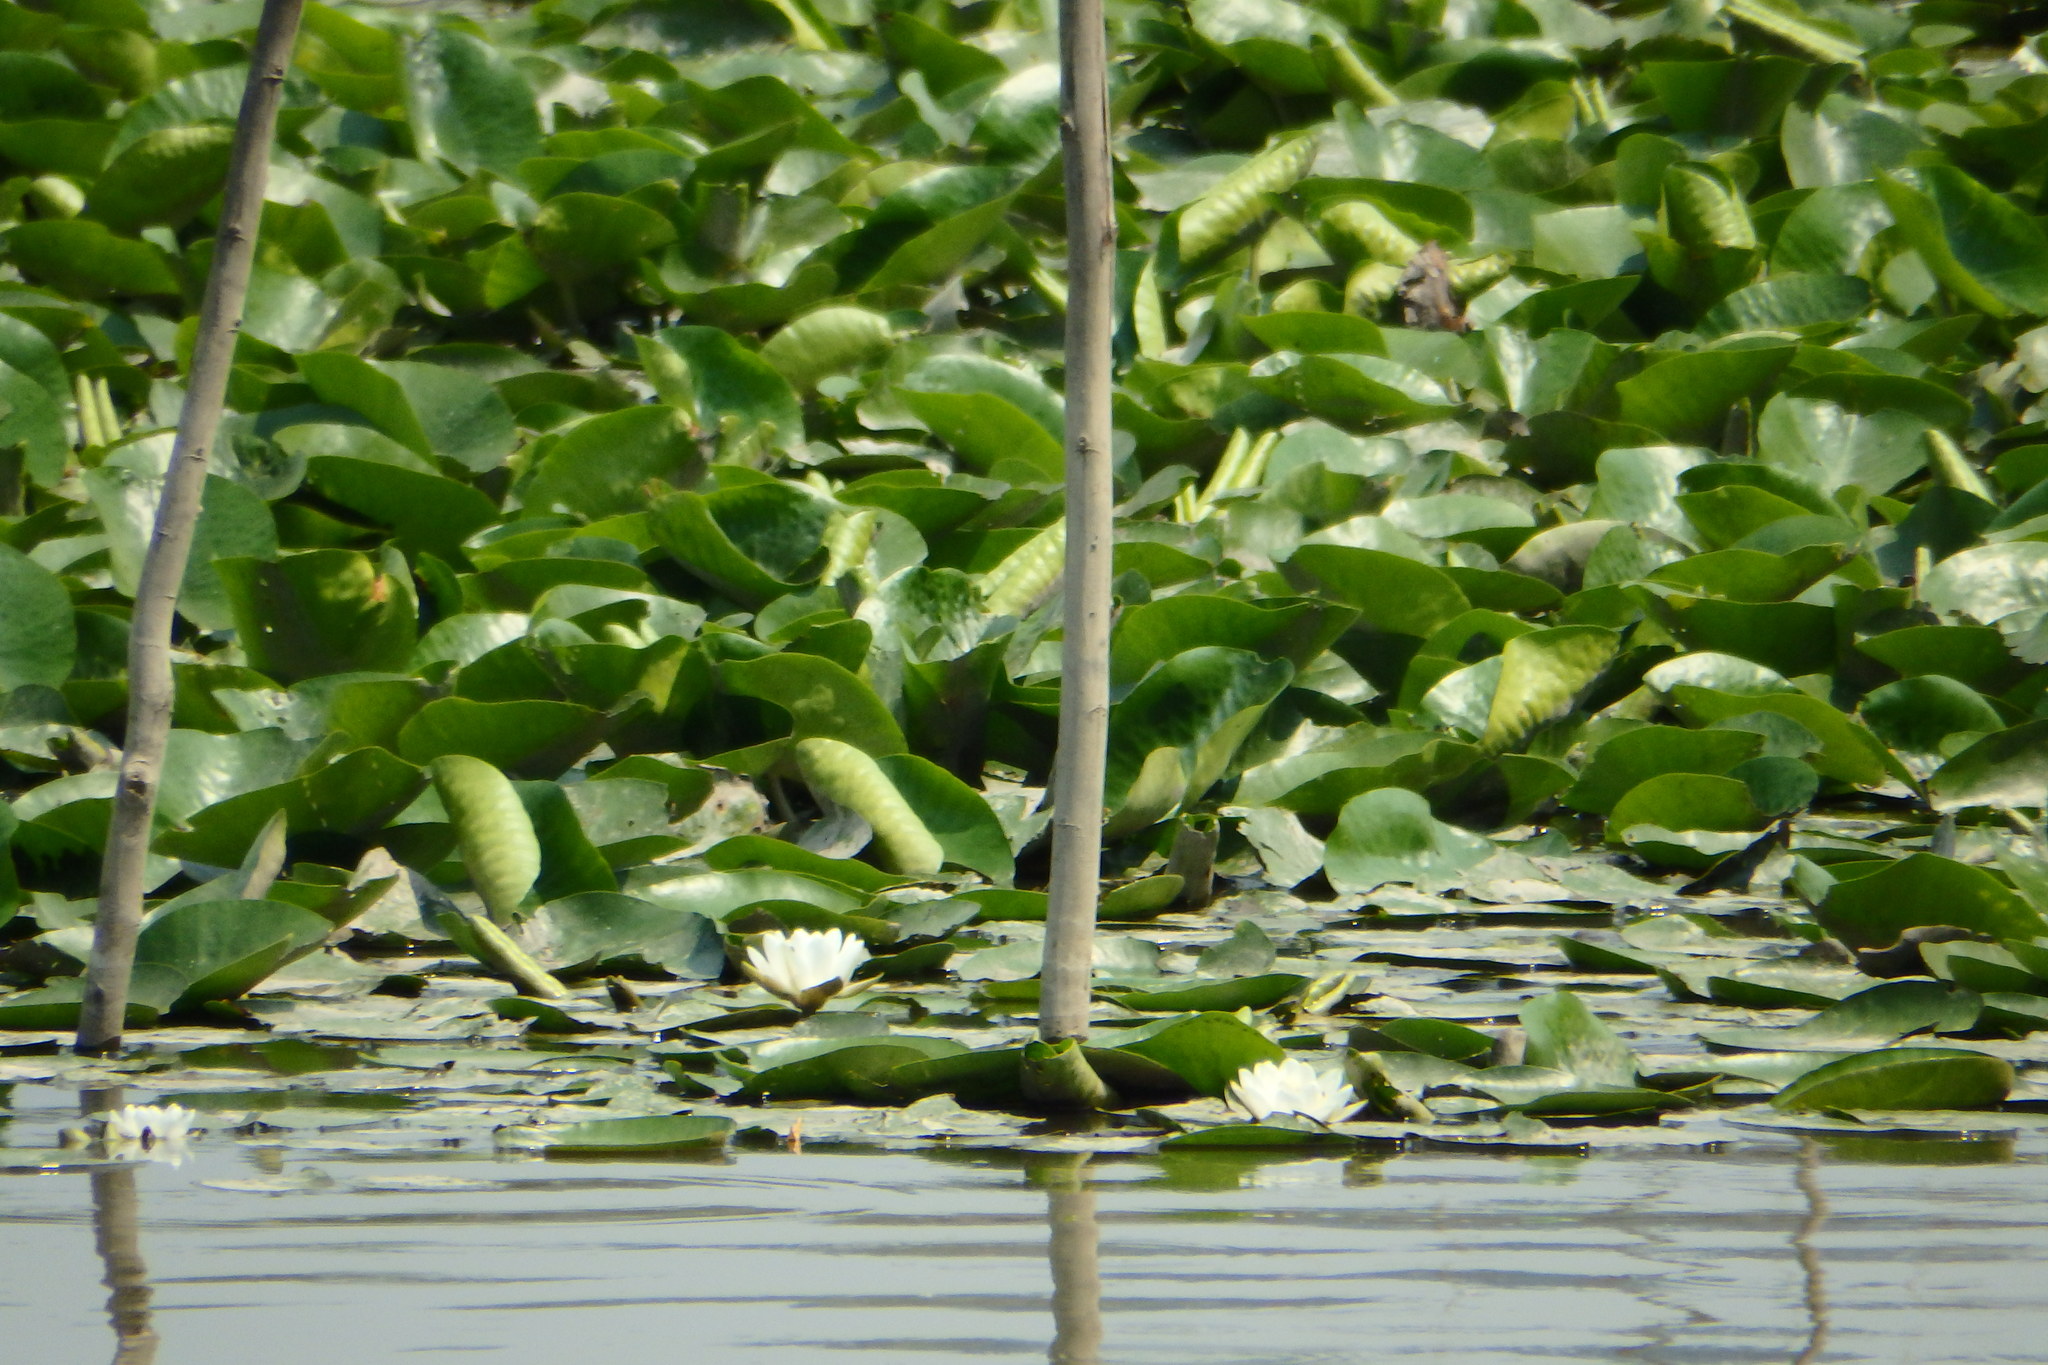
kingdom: Plantae
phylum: Tracheophyta
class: Magnoliopsida
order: Nymphaeales
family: Nymphaeaceae
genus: Nymphaea
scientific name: Nymphaea alba
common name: White water-lily
